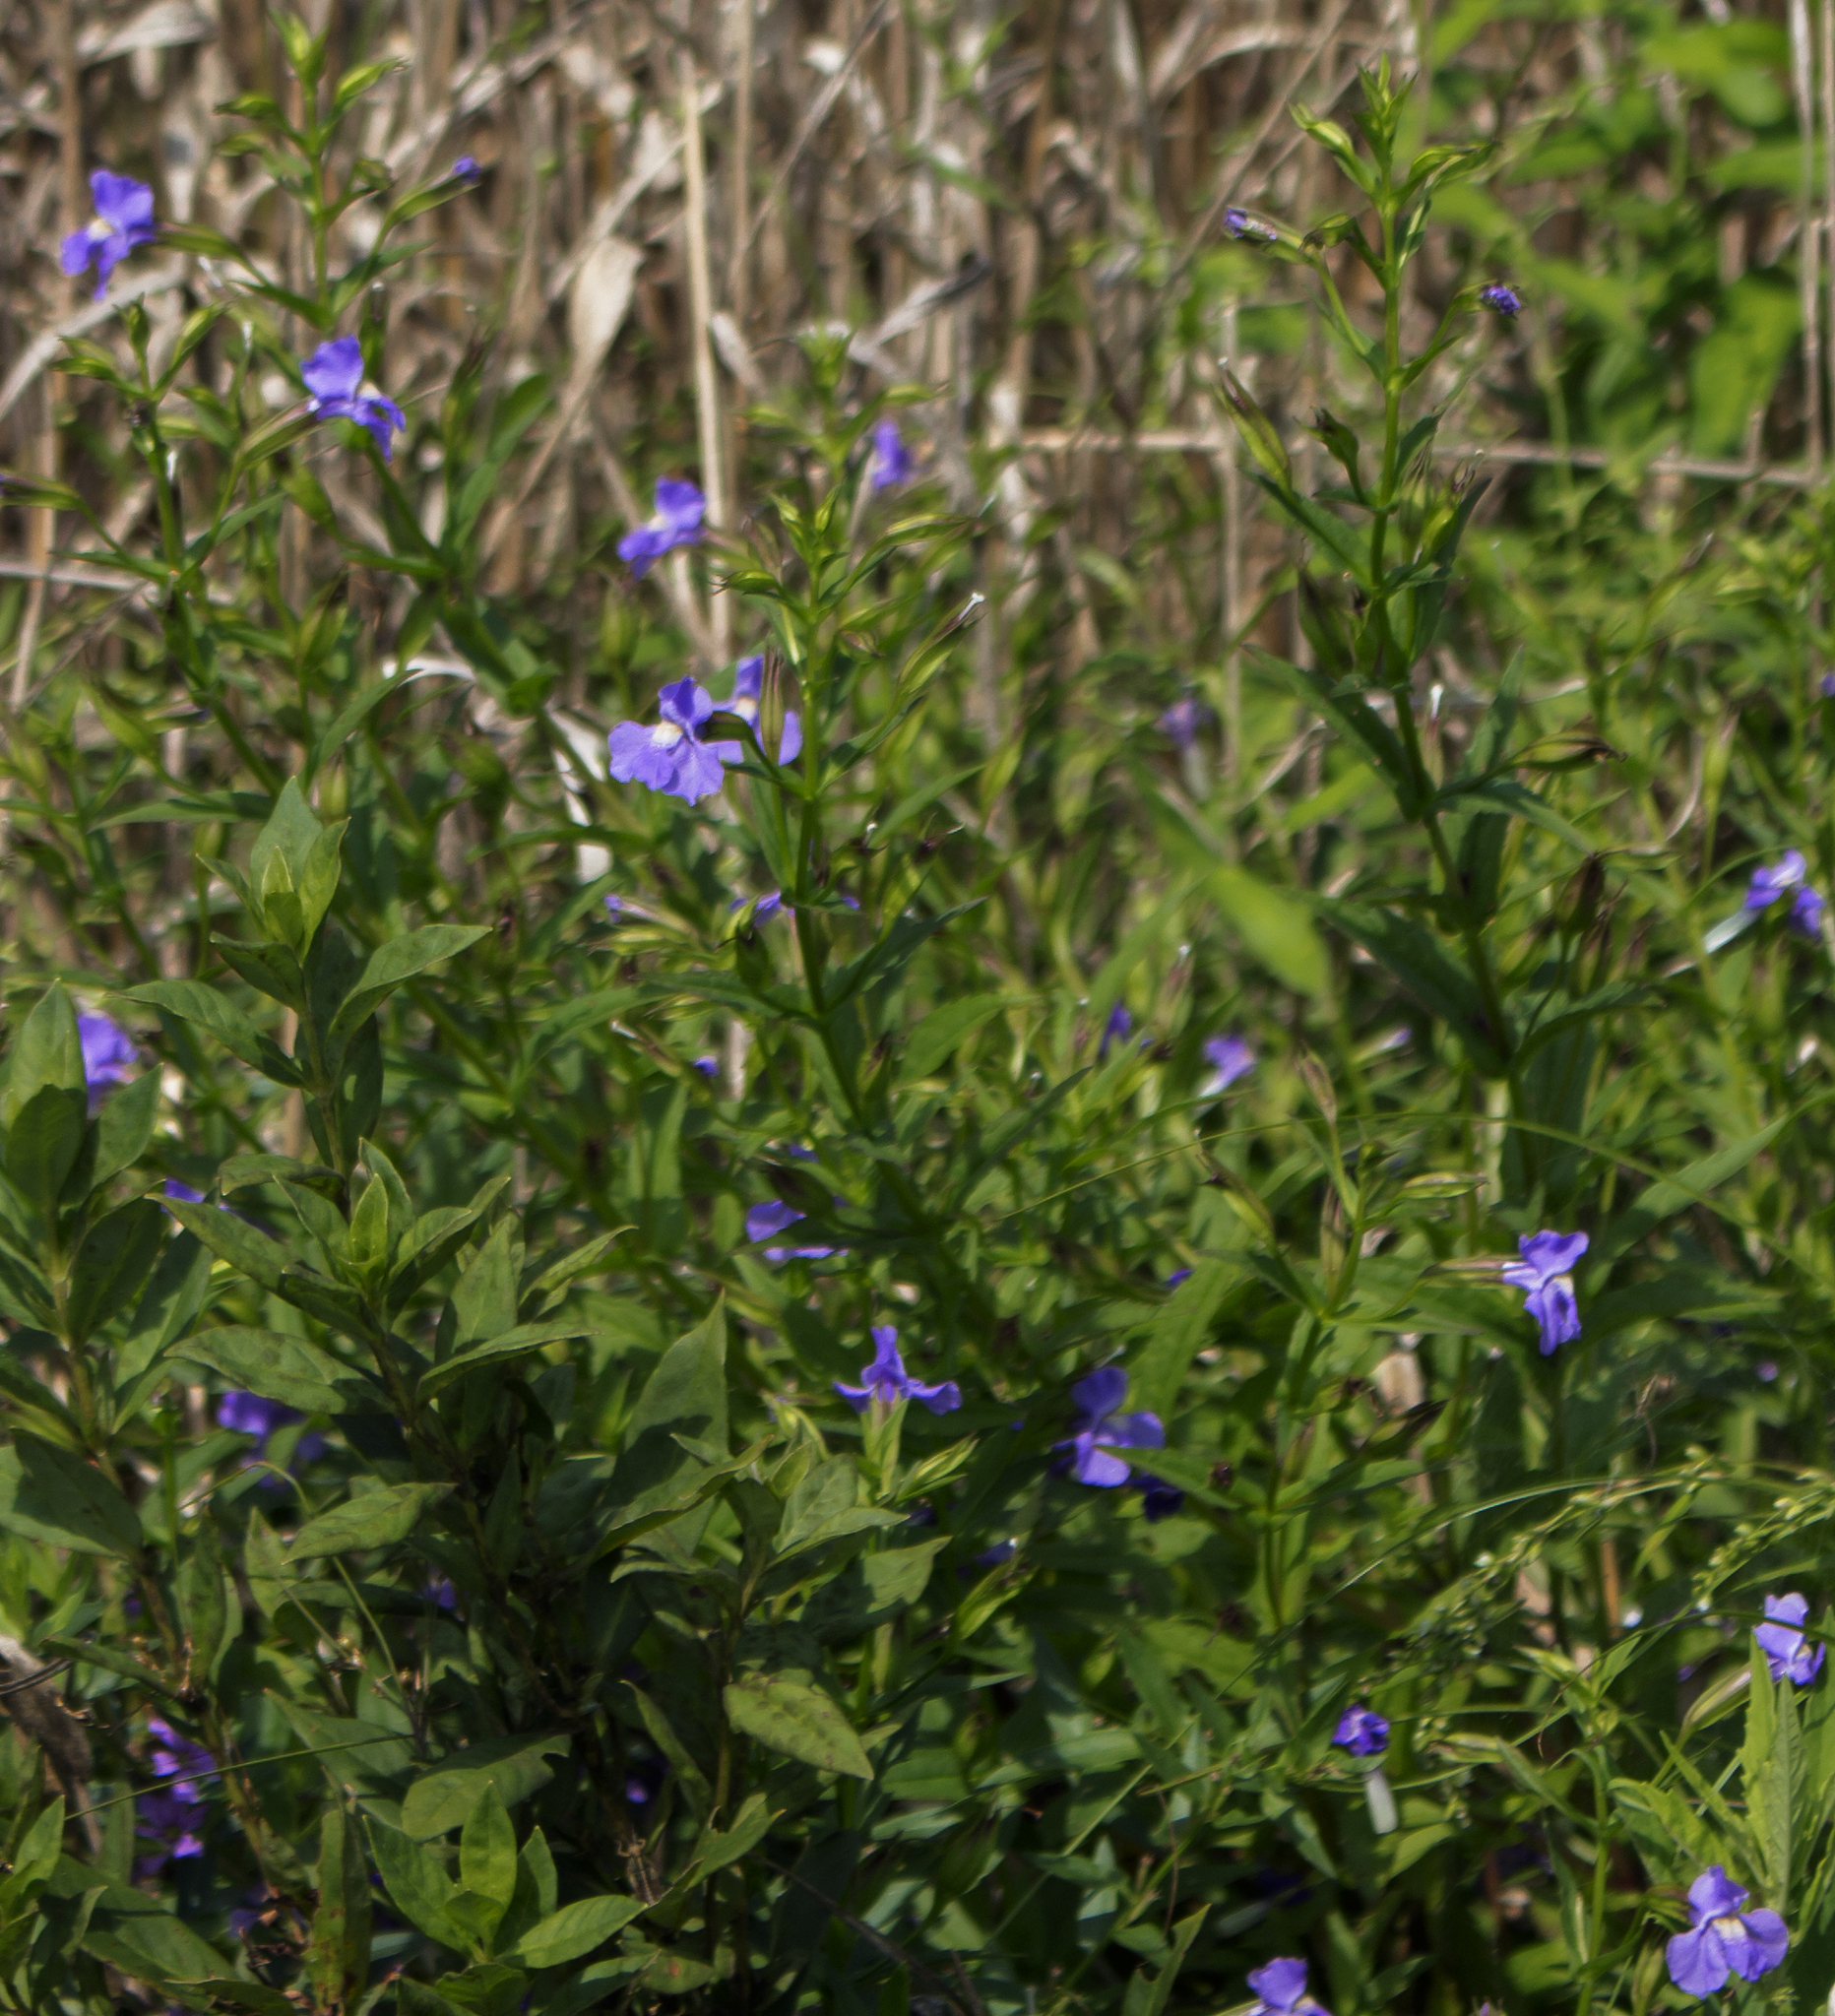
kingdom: Plantae
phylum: Tracheophyta
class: Magnoliopsida
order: Lamiales
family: Phrymaceae
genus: Mimulus
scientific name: Mimulus ringens
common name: Allegheny monkeyflower
